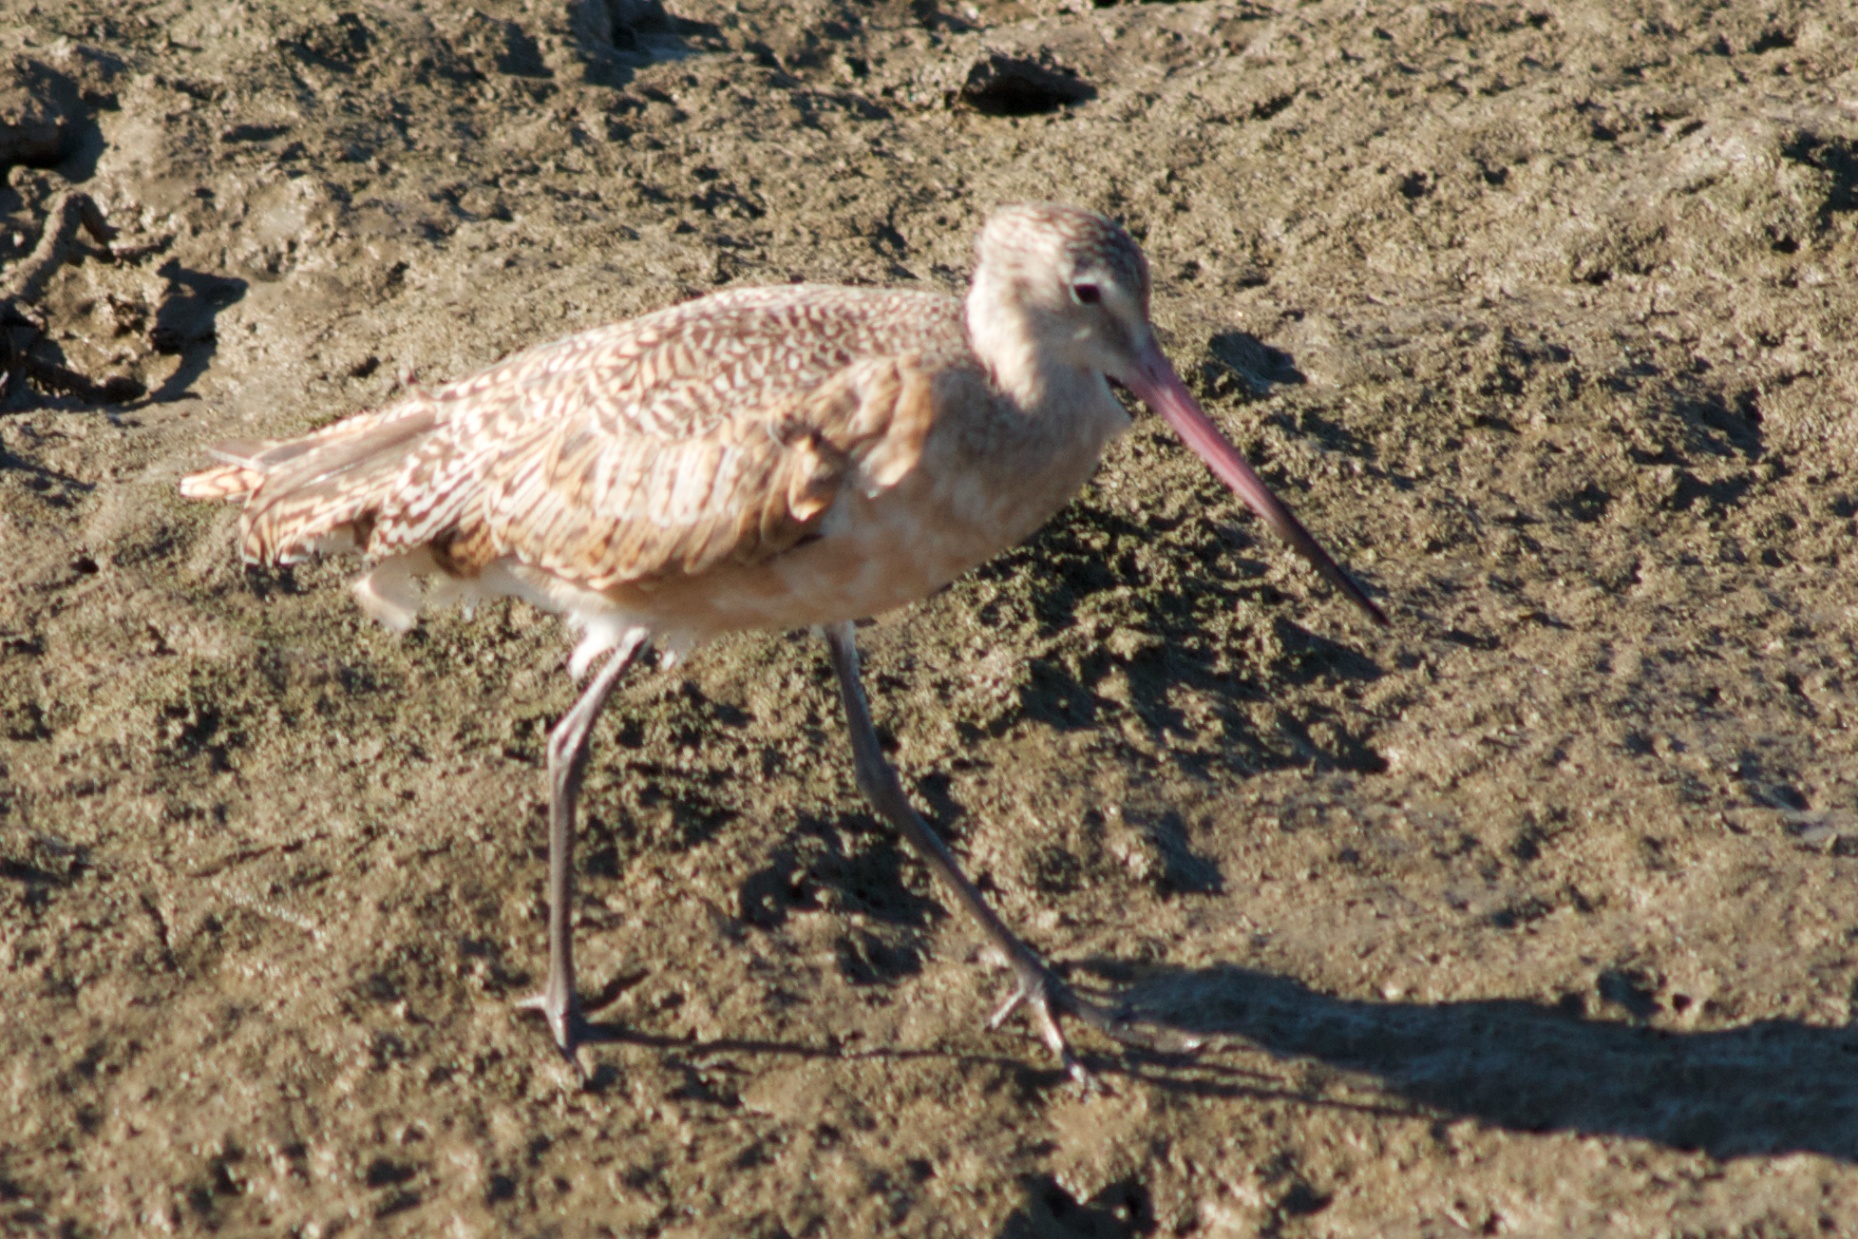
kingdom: Animalia
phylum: Chordata
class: Aves
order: Charadriiformes
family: Scolopacidae
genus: Limosa
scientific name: Limosa fedoa
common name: Marbled godwit
